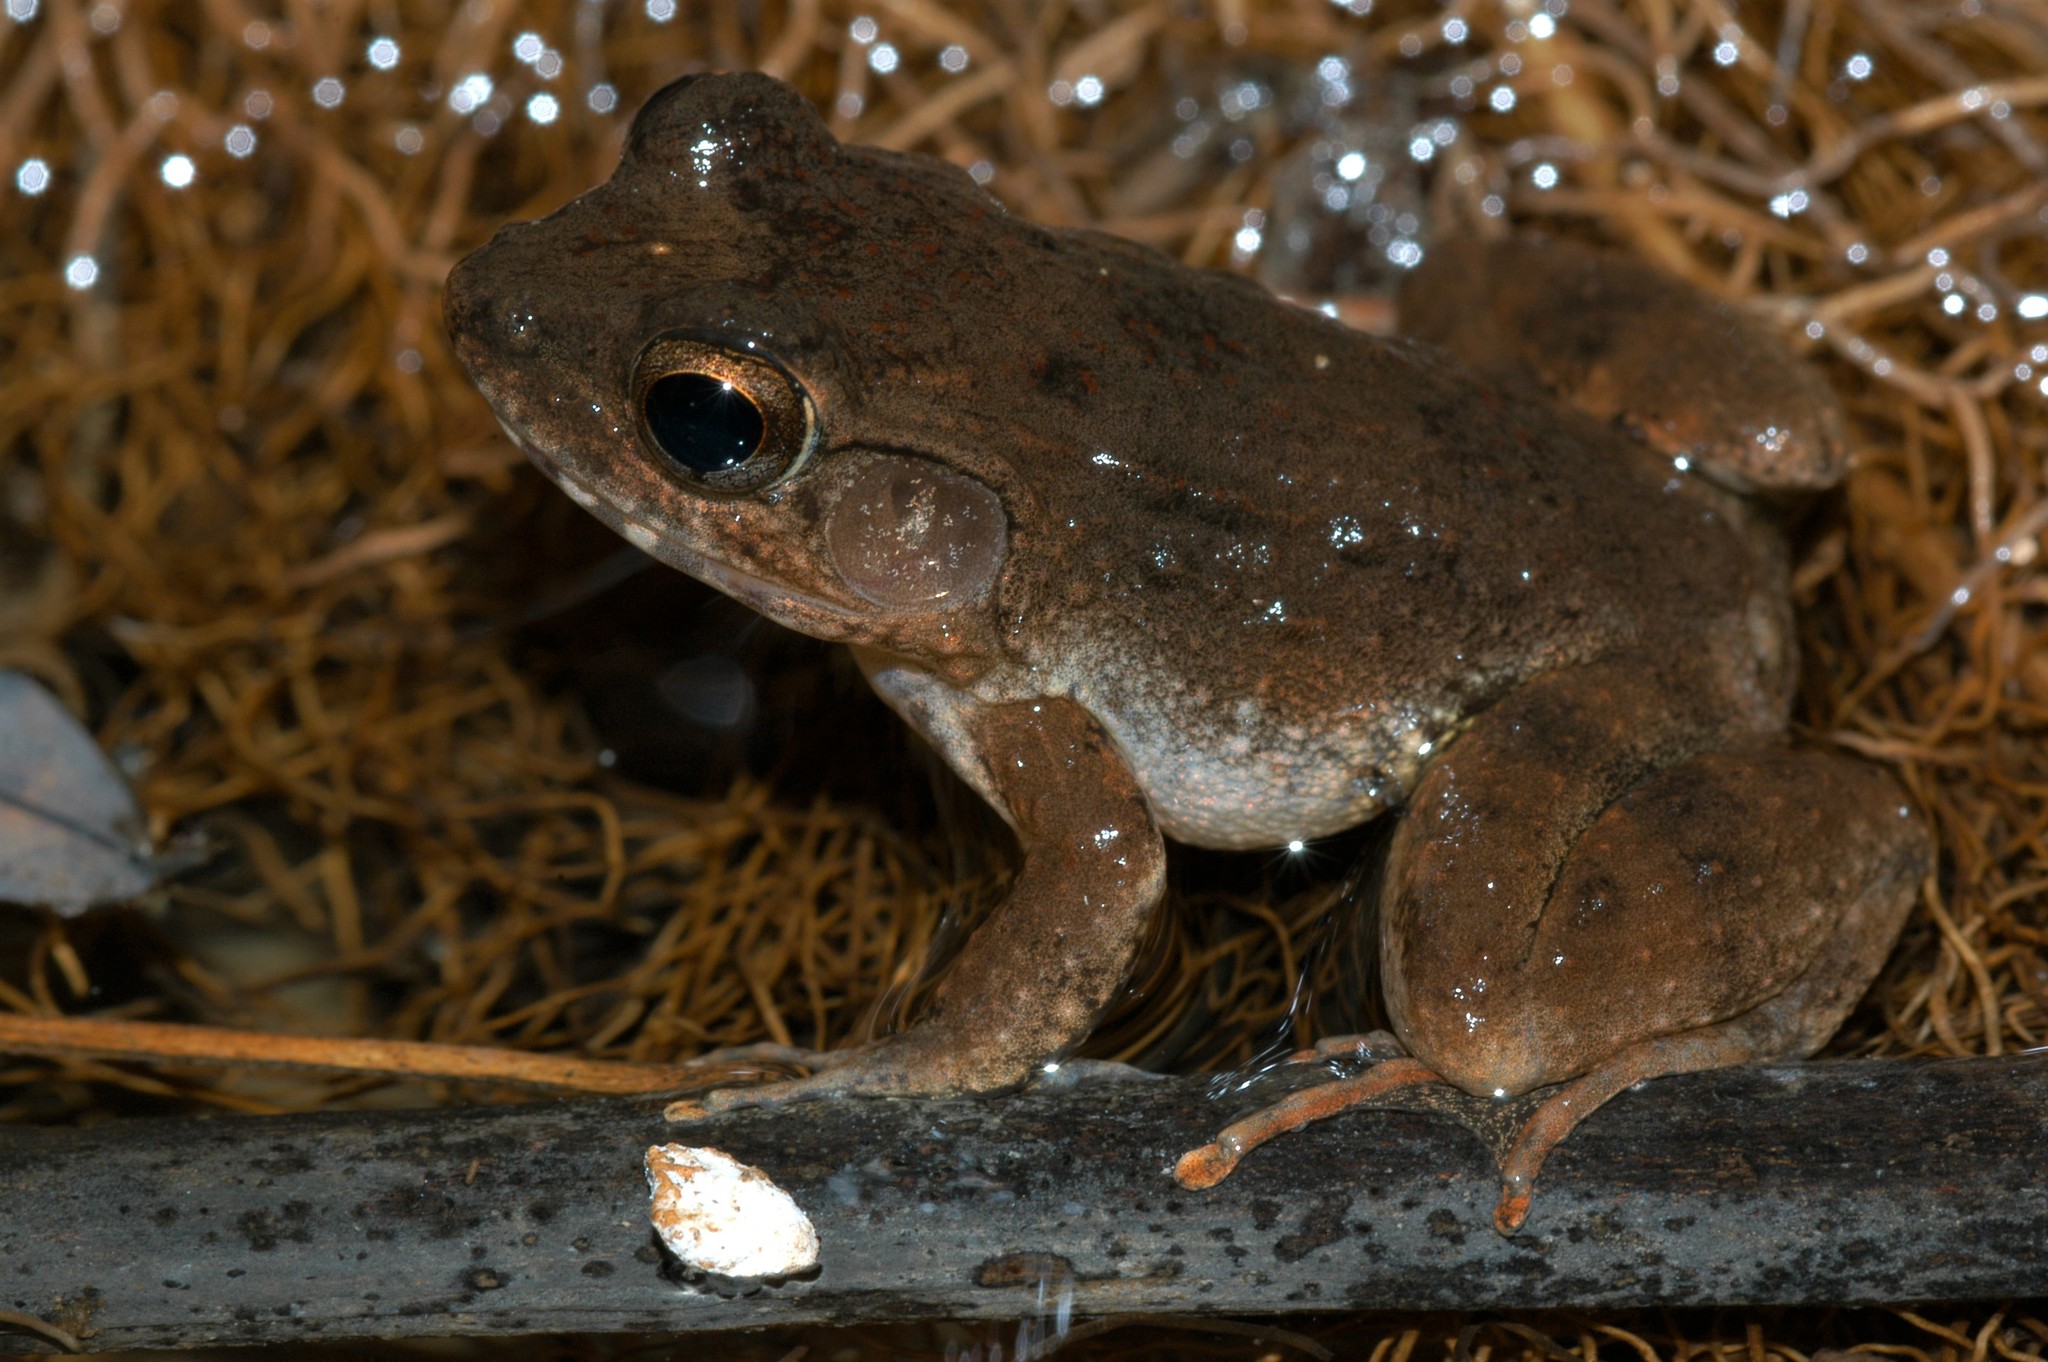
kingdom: Animalia
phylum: Chordata
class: Amphibia
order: Anura
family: Mantellidae
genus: Mantidactylus
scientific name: Mantidactylus bellyi
